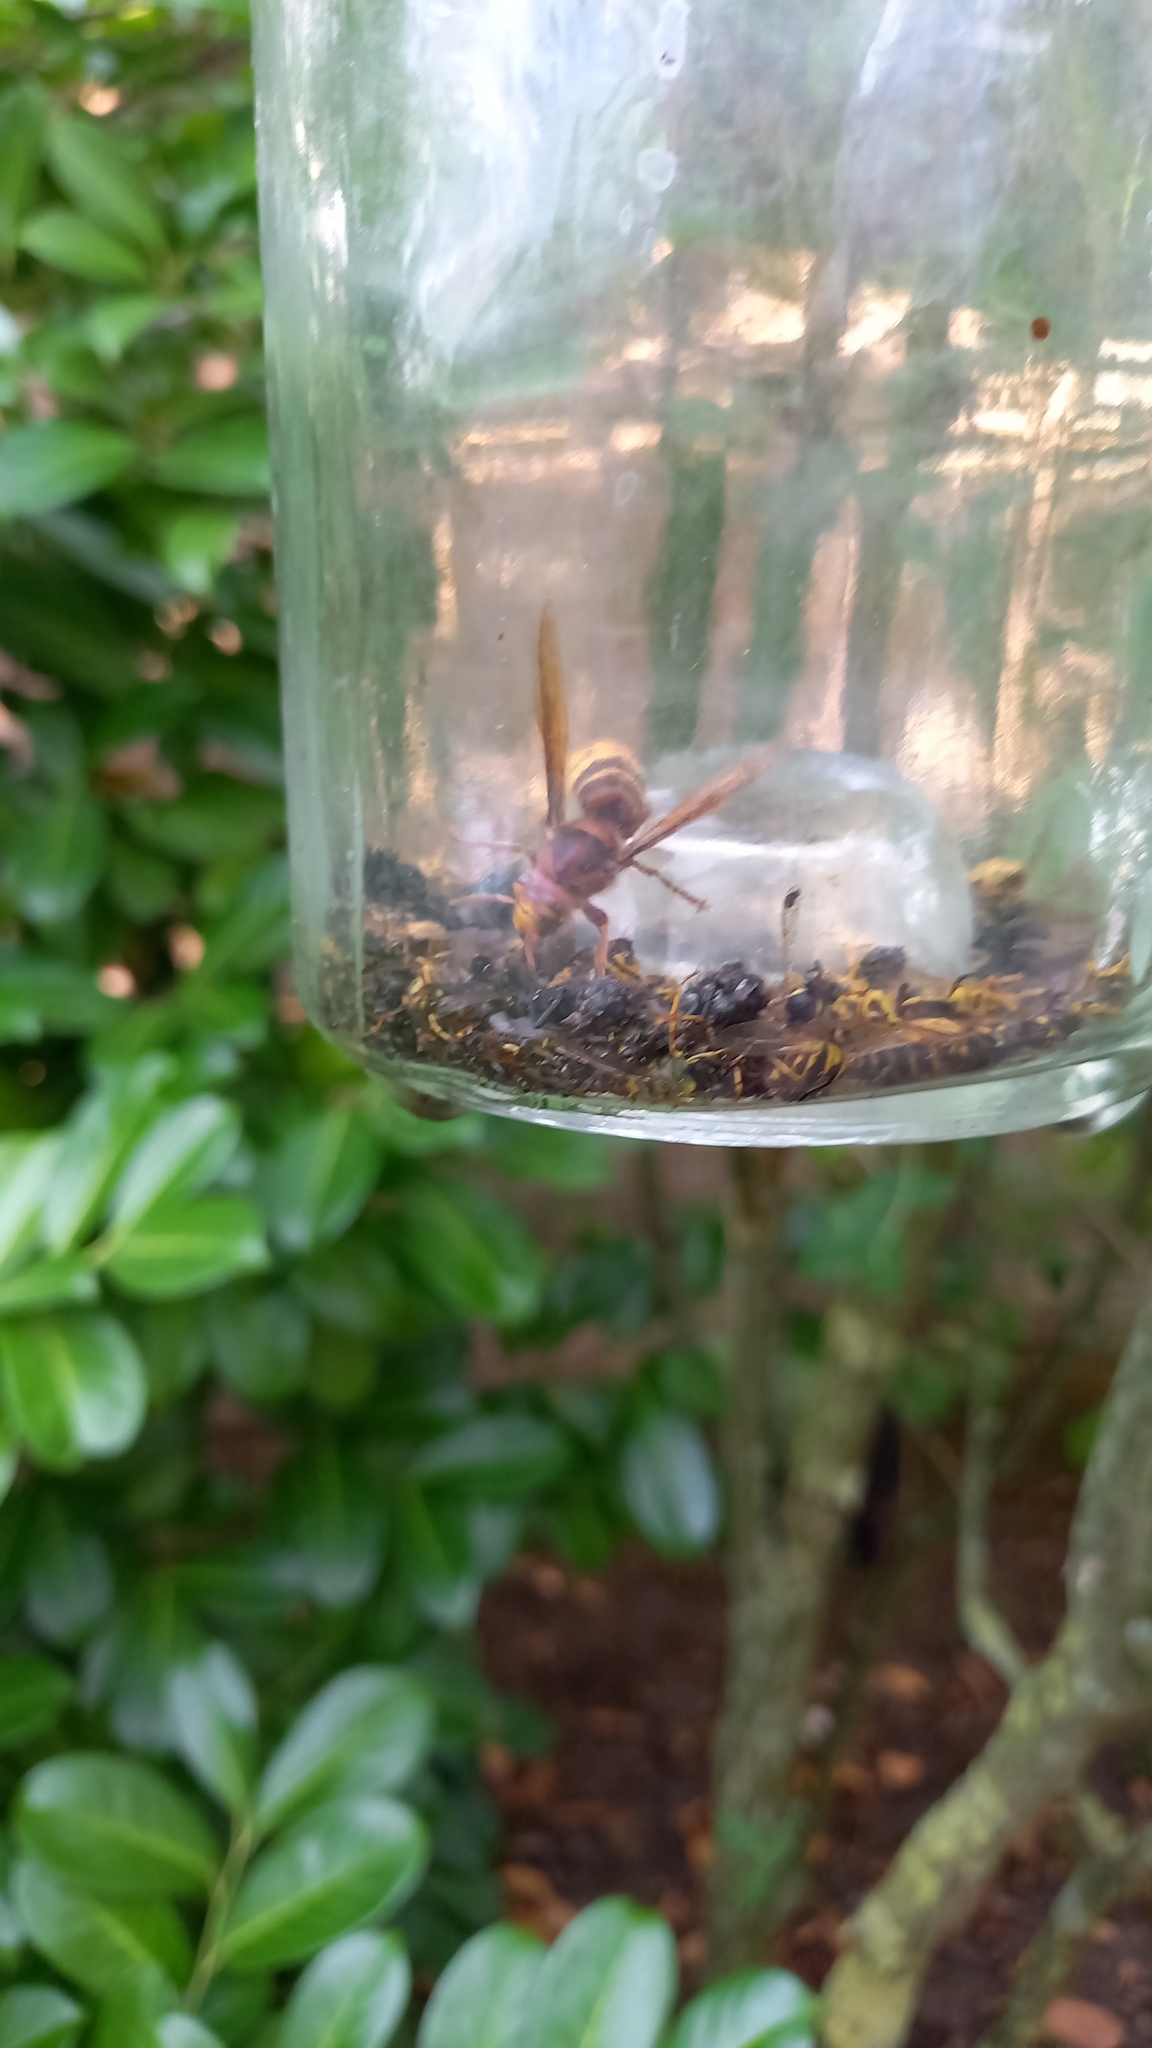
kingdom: Animalia
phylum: Arthropoda
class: Insecta
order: Hymenoptera
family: Vespidae
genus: Vespa
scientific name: Vespa crabro
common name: Hornet
